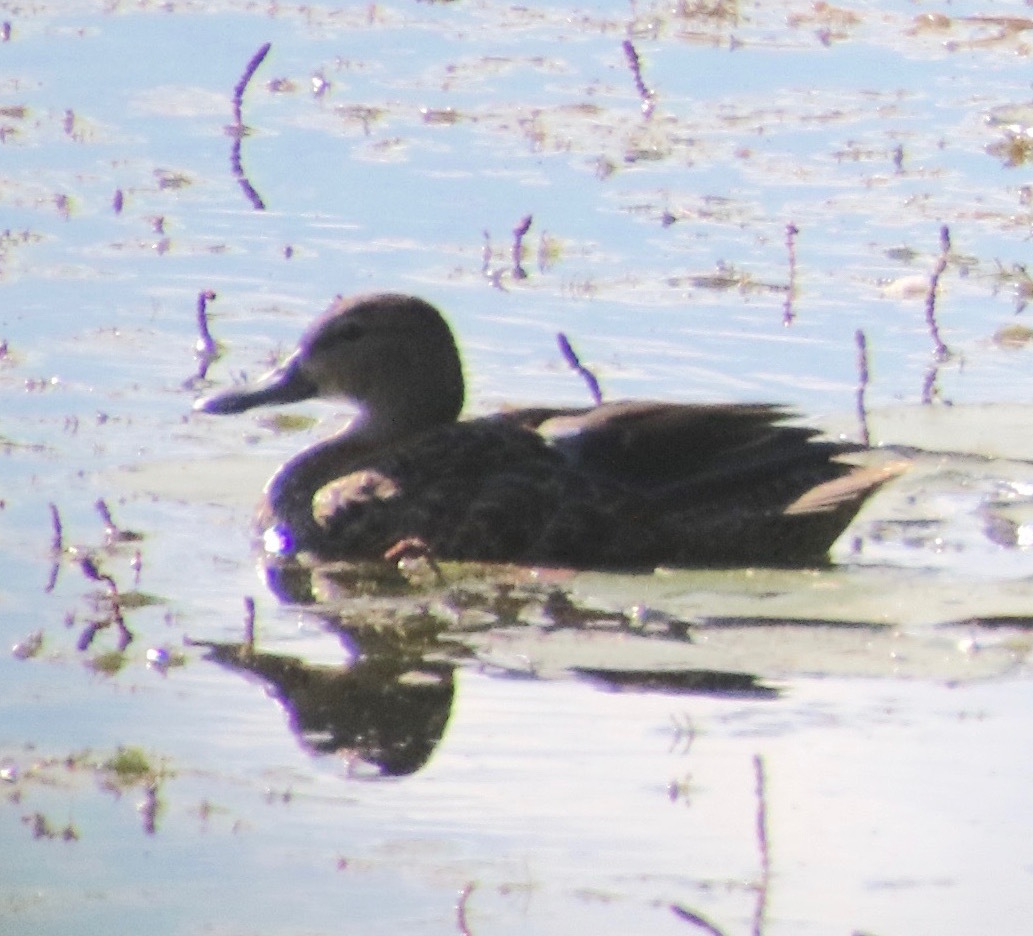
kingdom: Animalia
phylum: Chordata
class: Aves
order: Anseriformes
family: Anatidae
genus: Spatula
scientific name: Spatula discors
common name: Blue-winged teal
